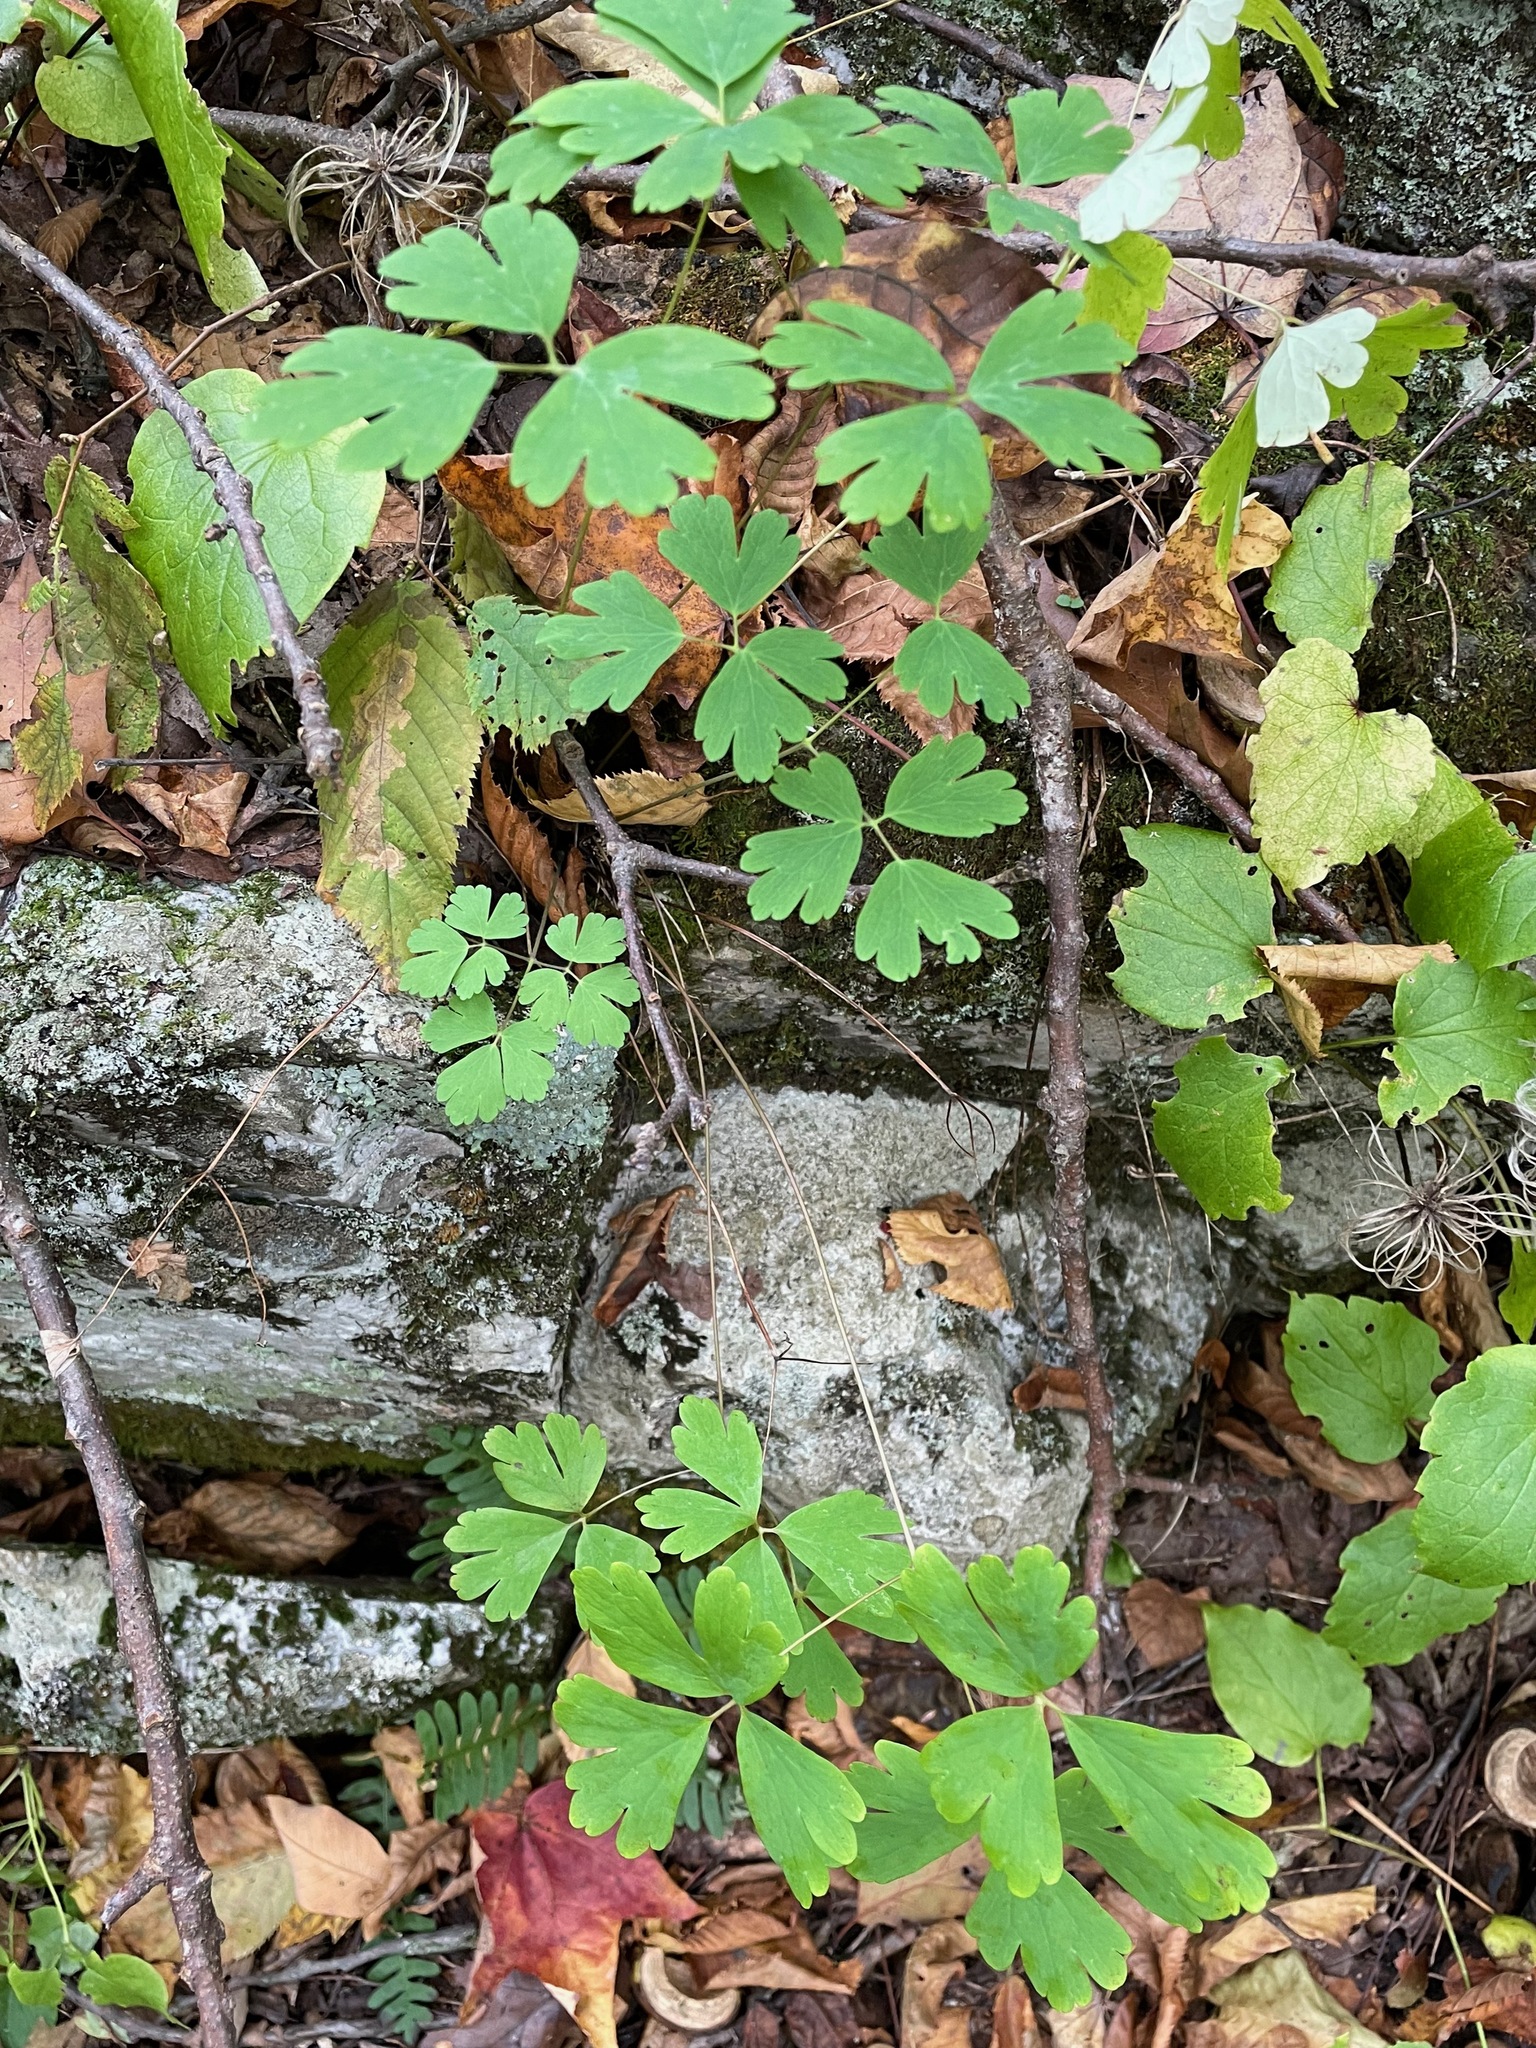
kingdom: Plantae
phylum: Tracheophyta
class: Magnoliopsida
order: Ranunculales
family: Ranunculaceae
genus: Aquilegia
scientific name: Aquilegia canadensis
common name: American columbine
